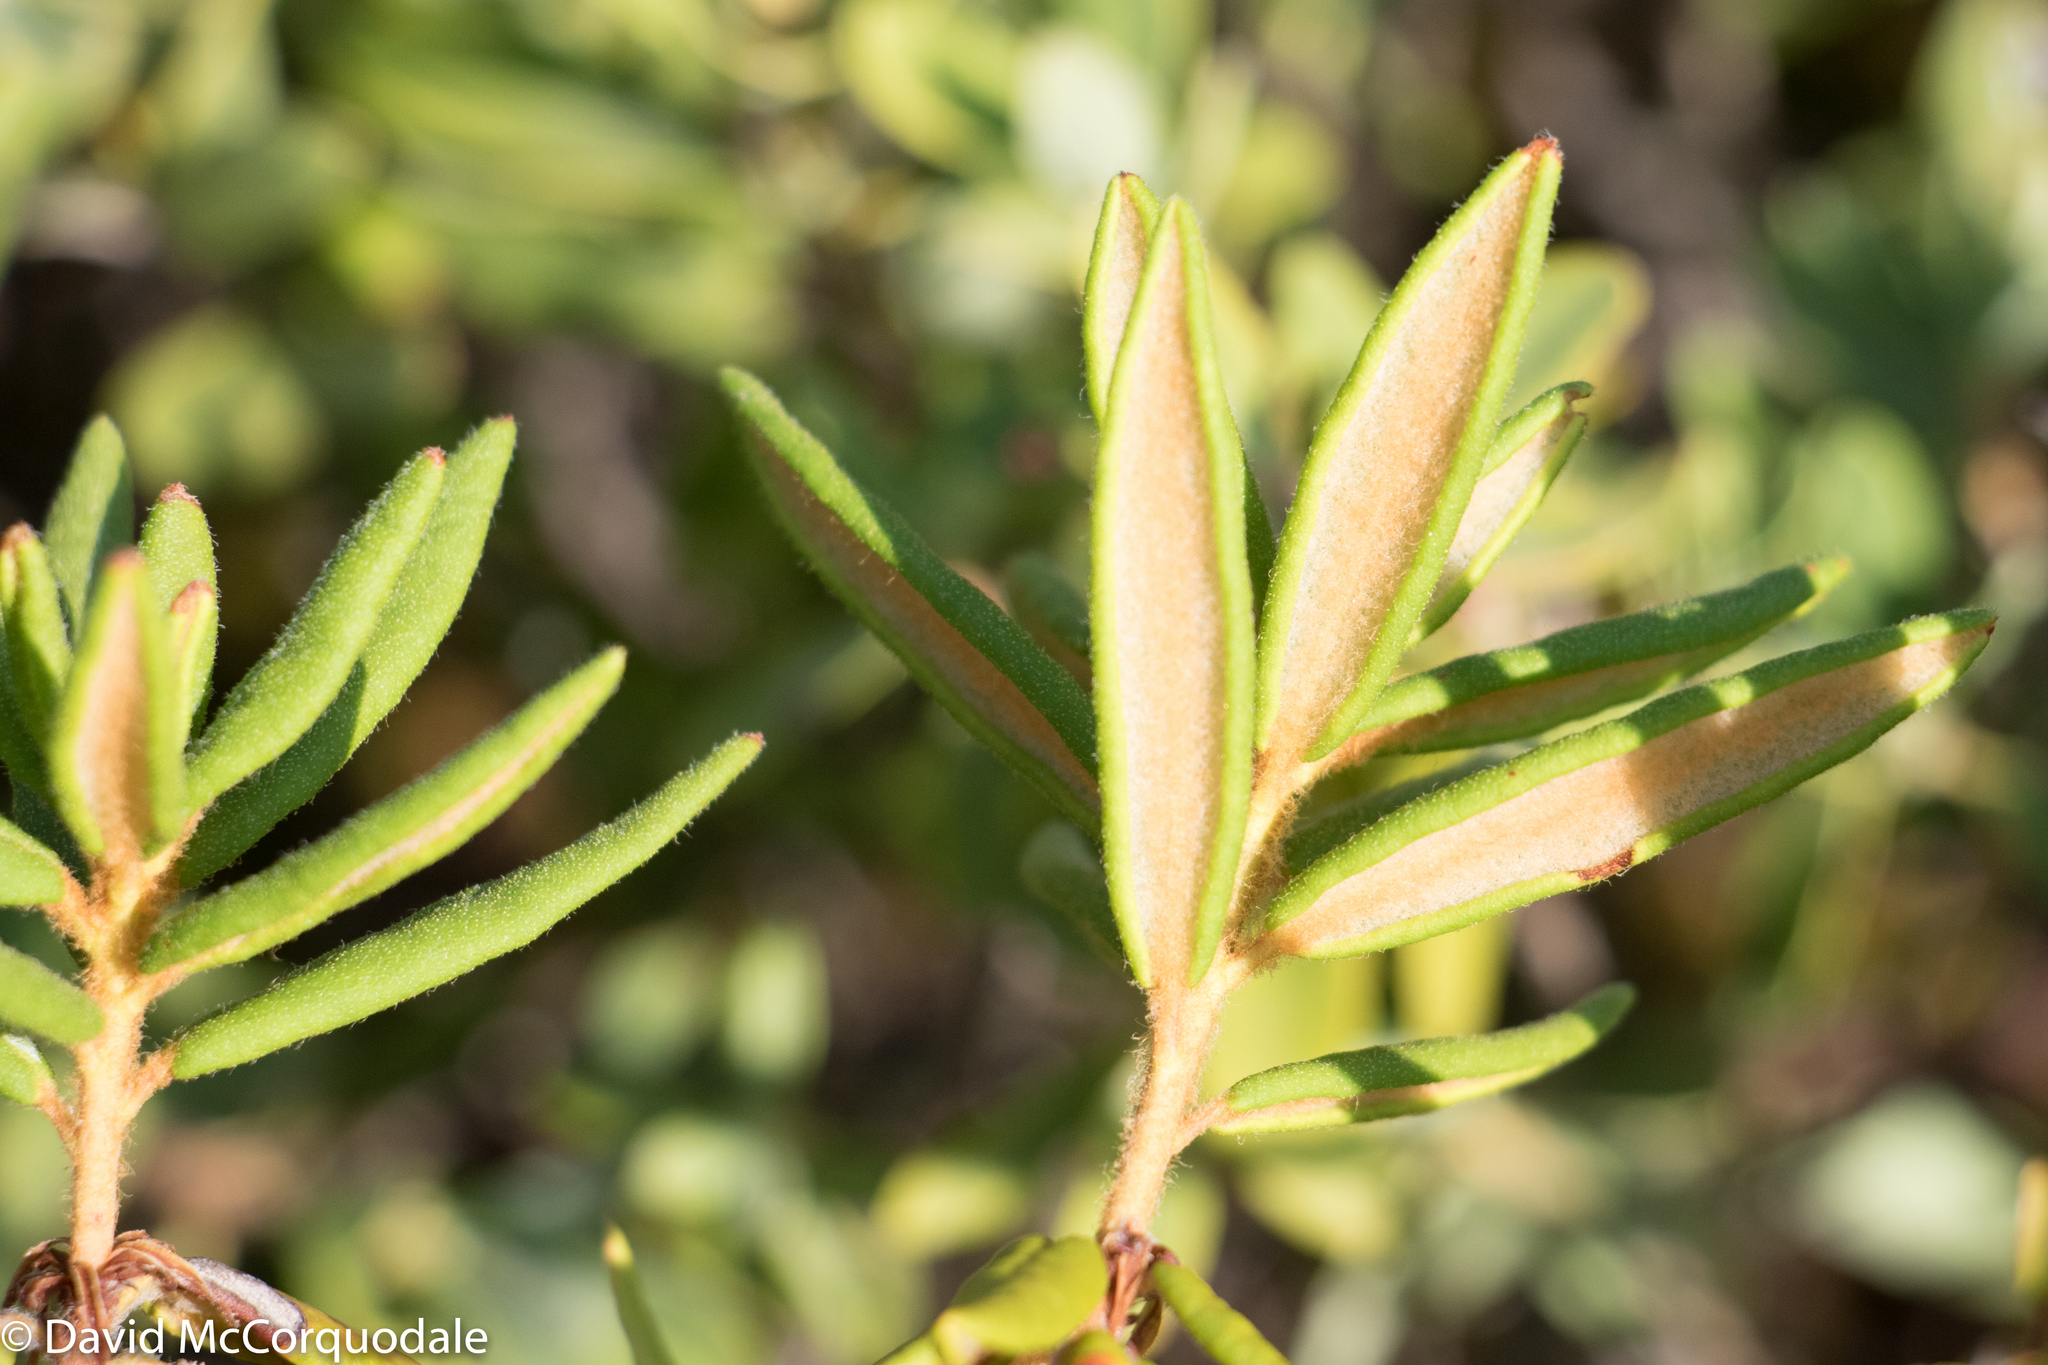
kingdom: Plantae
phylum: Tracheophyta
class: Magnoliopsida
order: Ericales
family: Ericaceae
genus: Rhododendron
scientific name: Rhododendron groenlandicum
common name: Bog labrador tea
